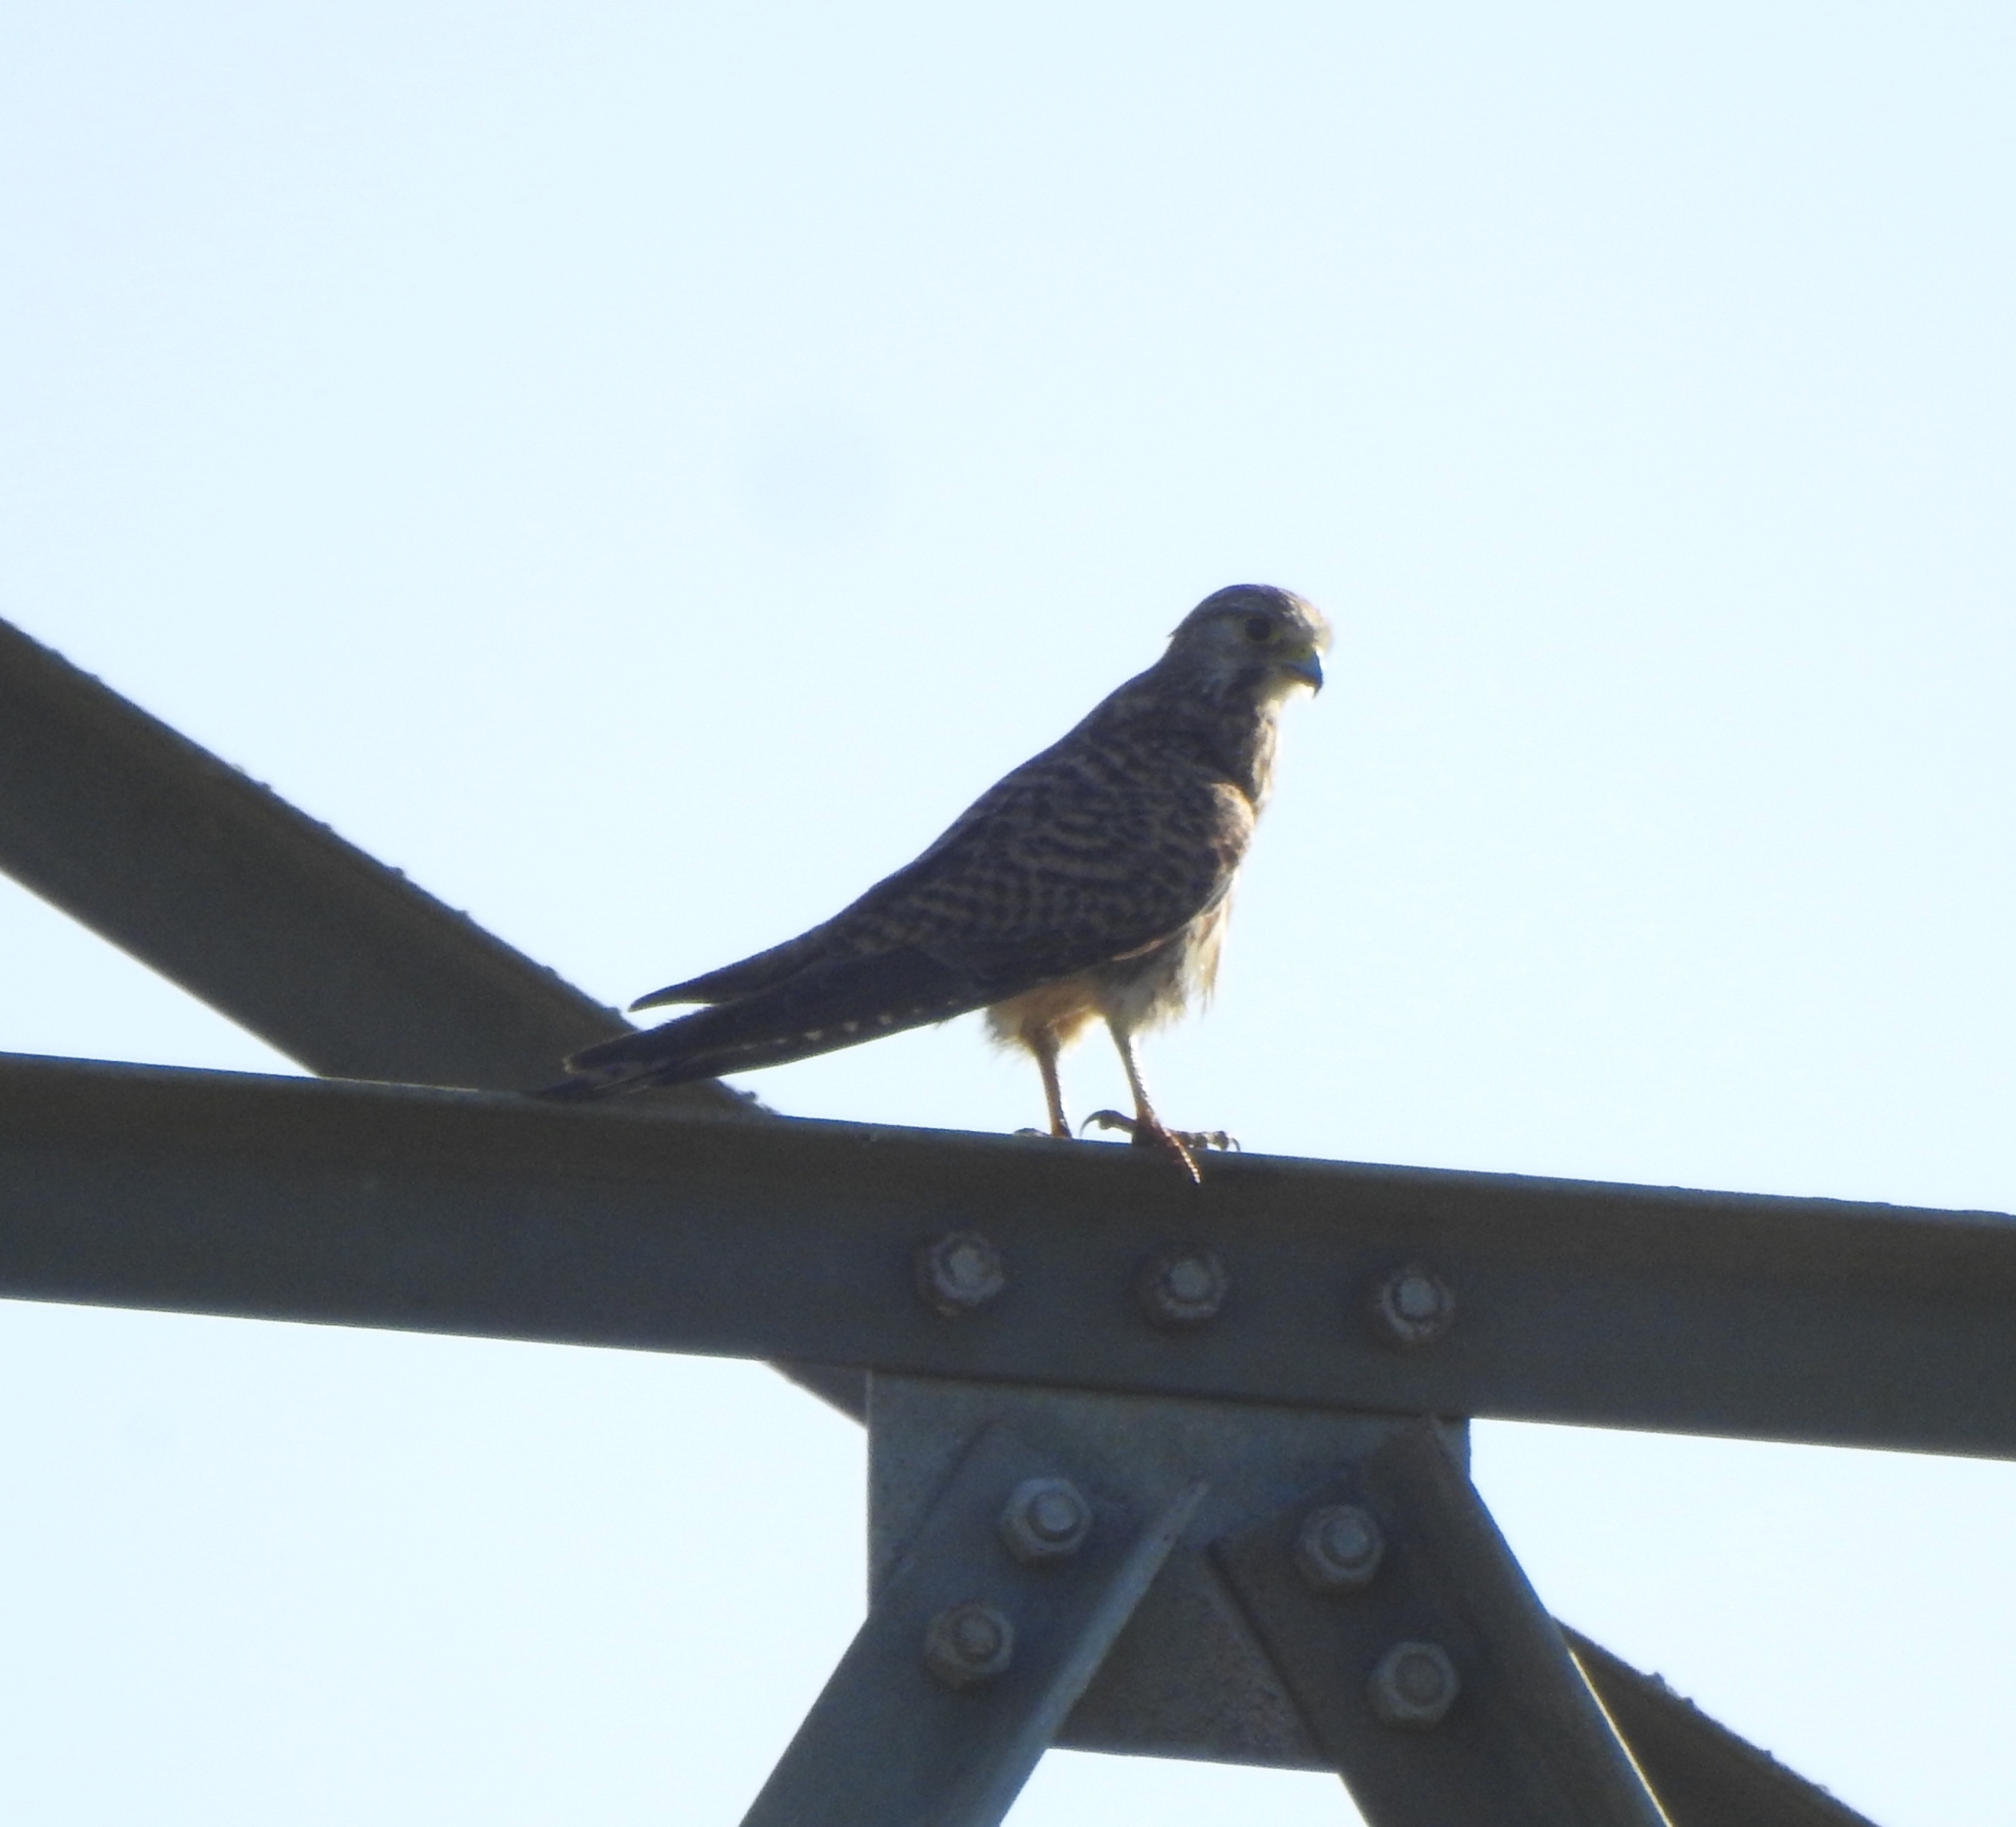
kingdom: Animalia
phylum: Chordata
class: Aves
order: Falconiformes
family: Falconidae
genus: Falco
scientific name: Falco tinnunculus
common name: Common kestrel
